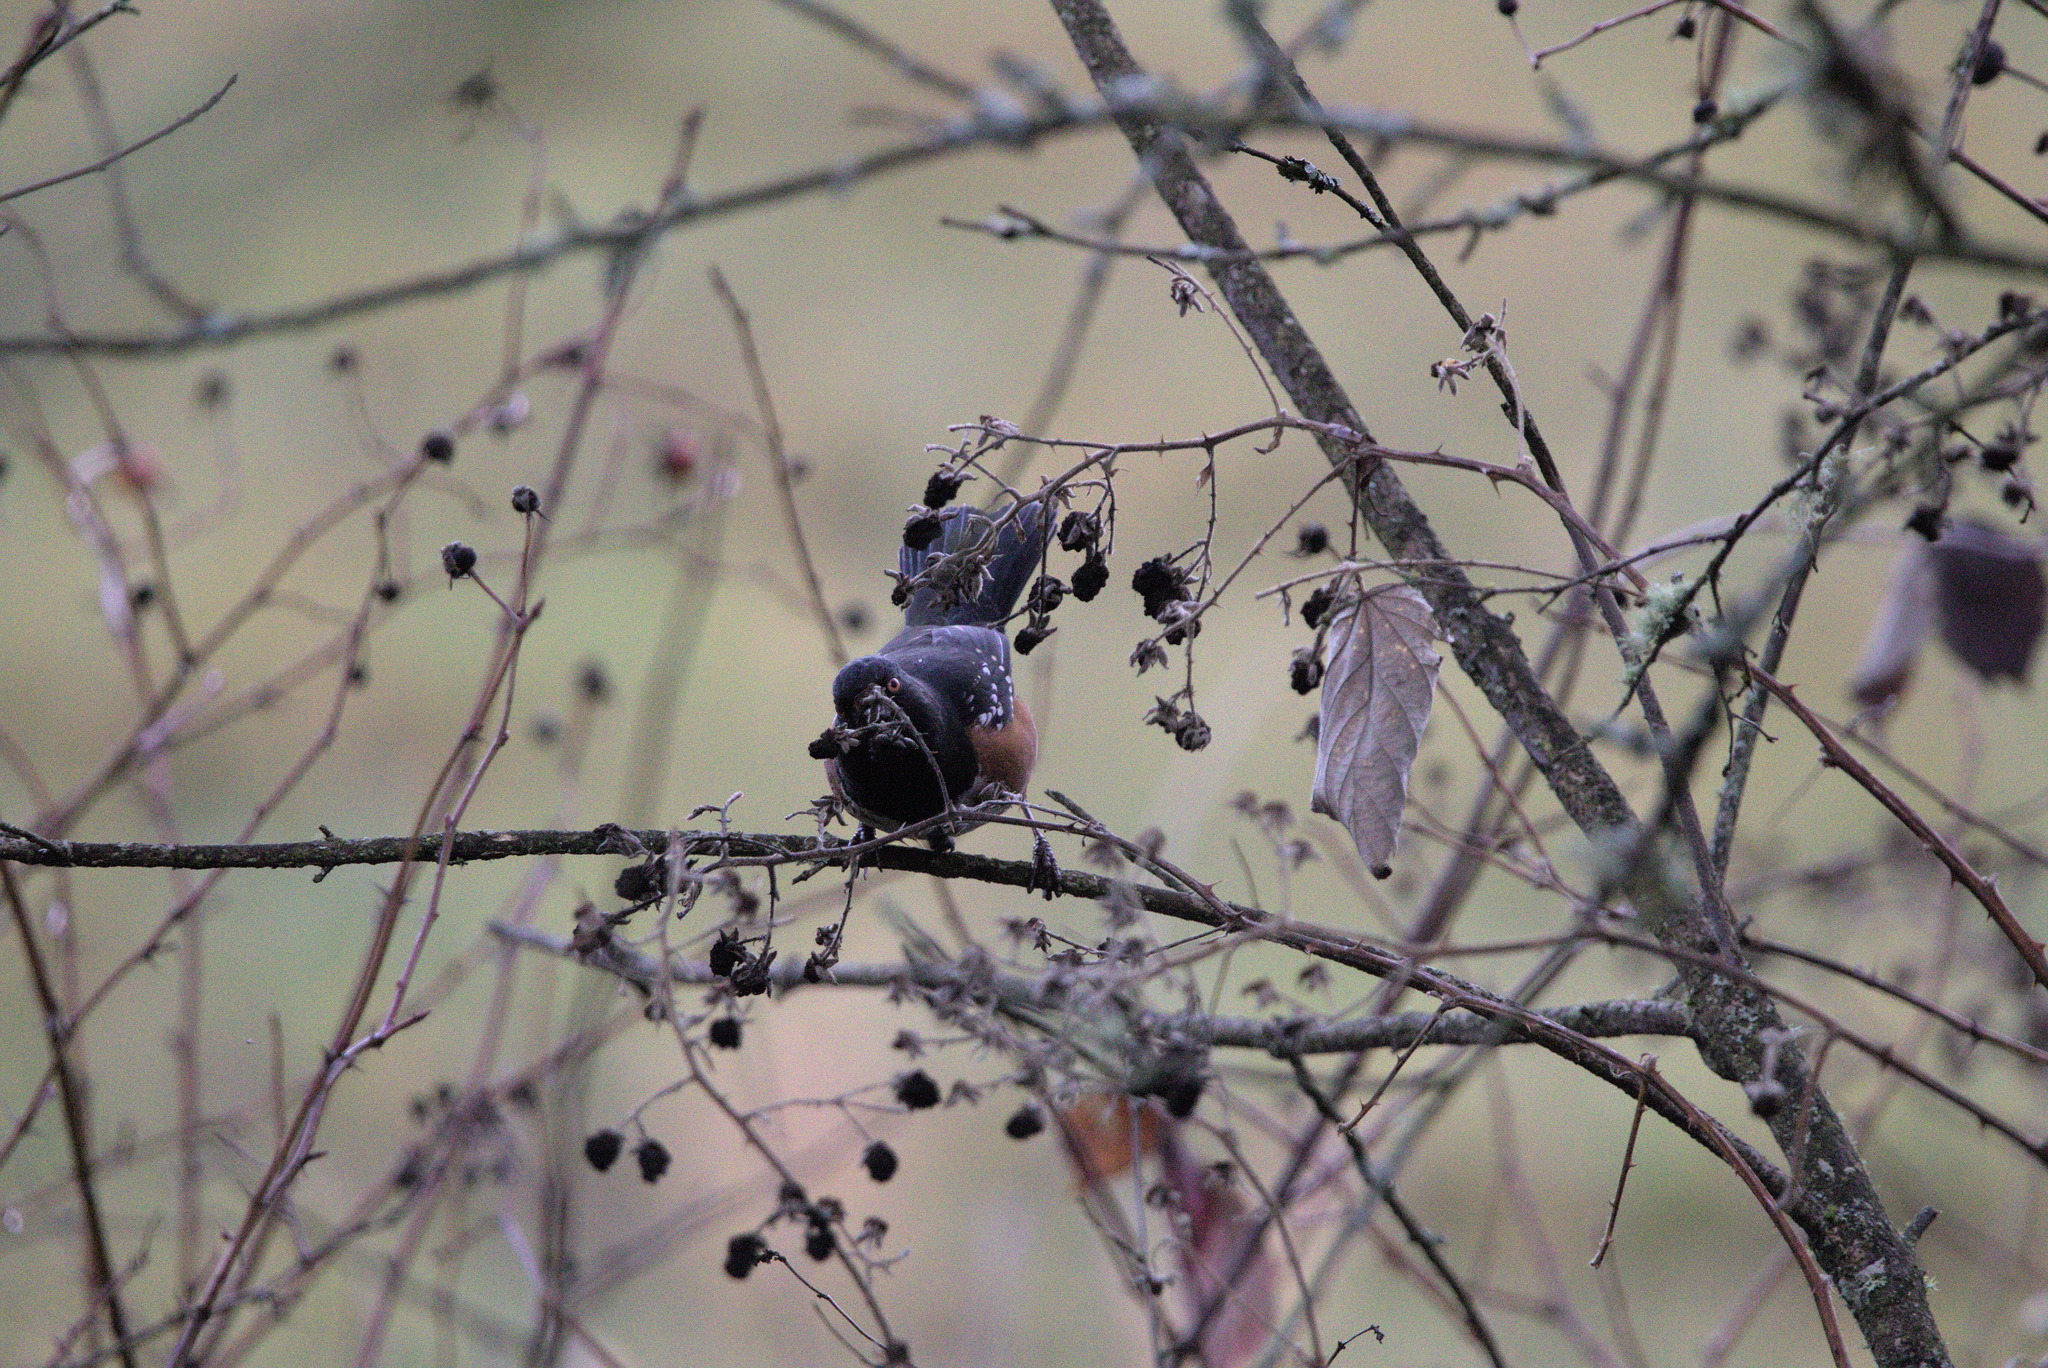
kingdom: Animalia
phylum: Chordata
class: Aves
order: Passeriformes
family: Passerellidae
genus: Pipilo
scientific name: Pipilo maculatus
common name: Spotted towhee
